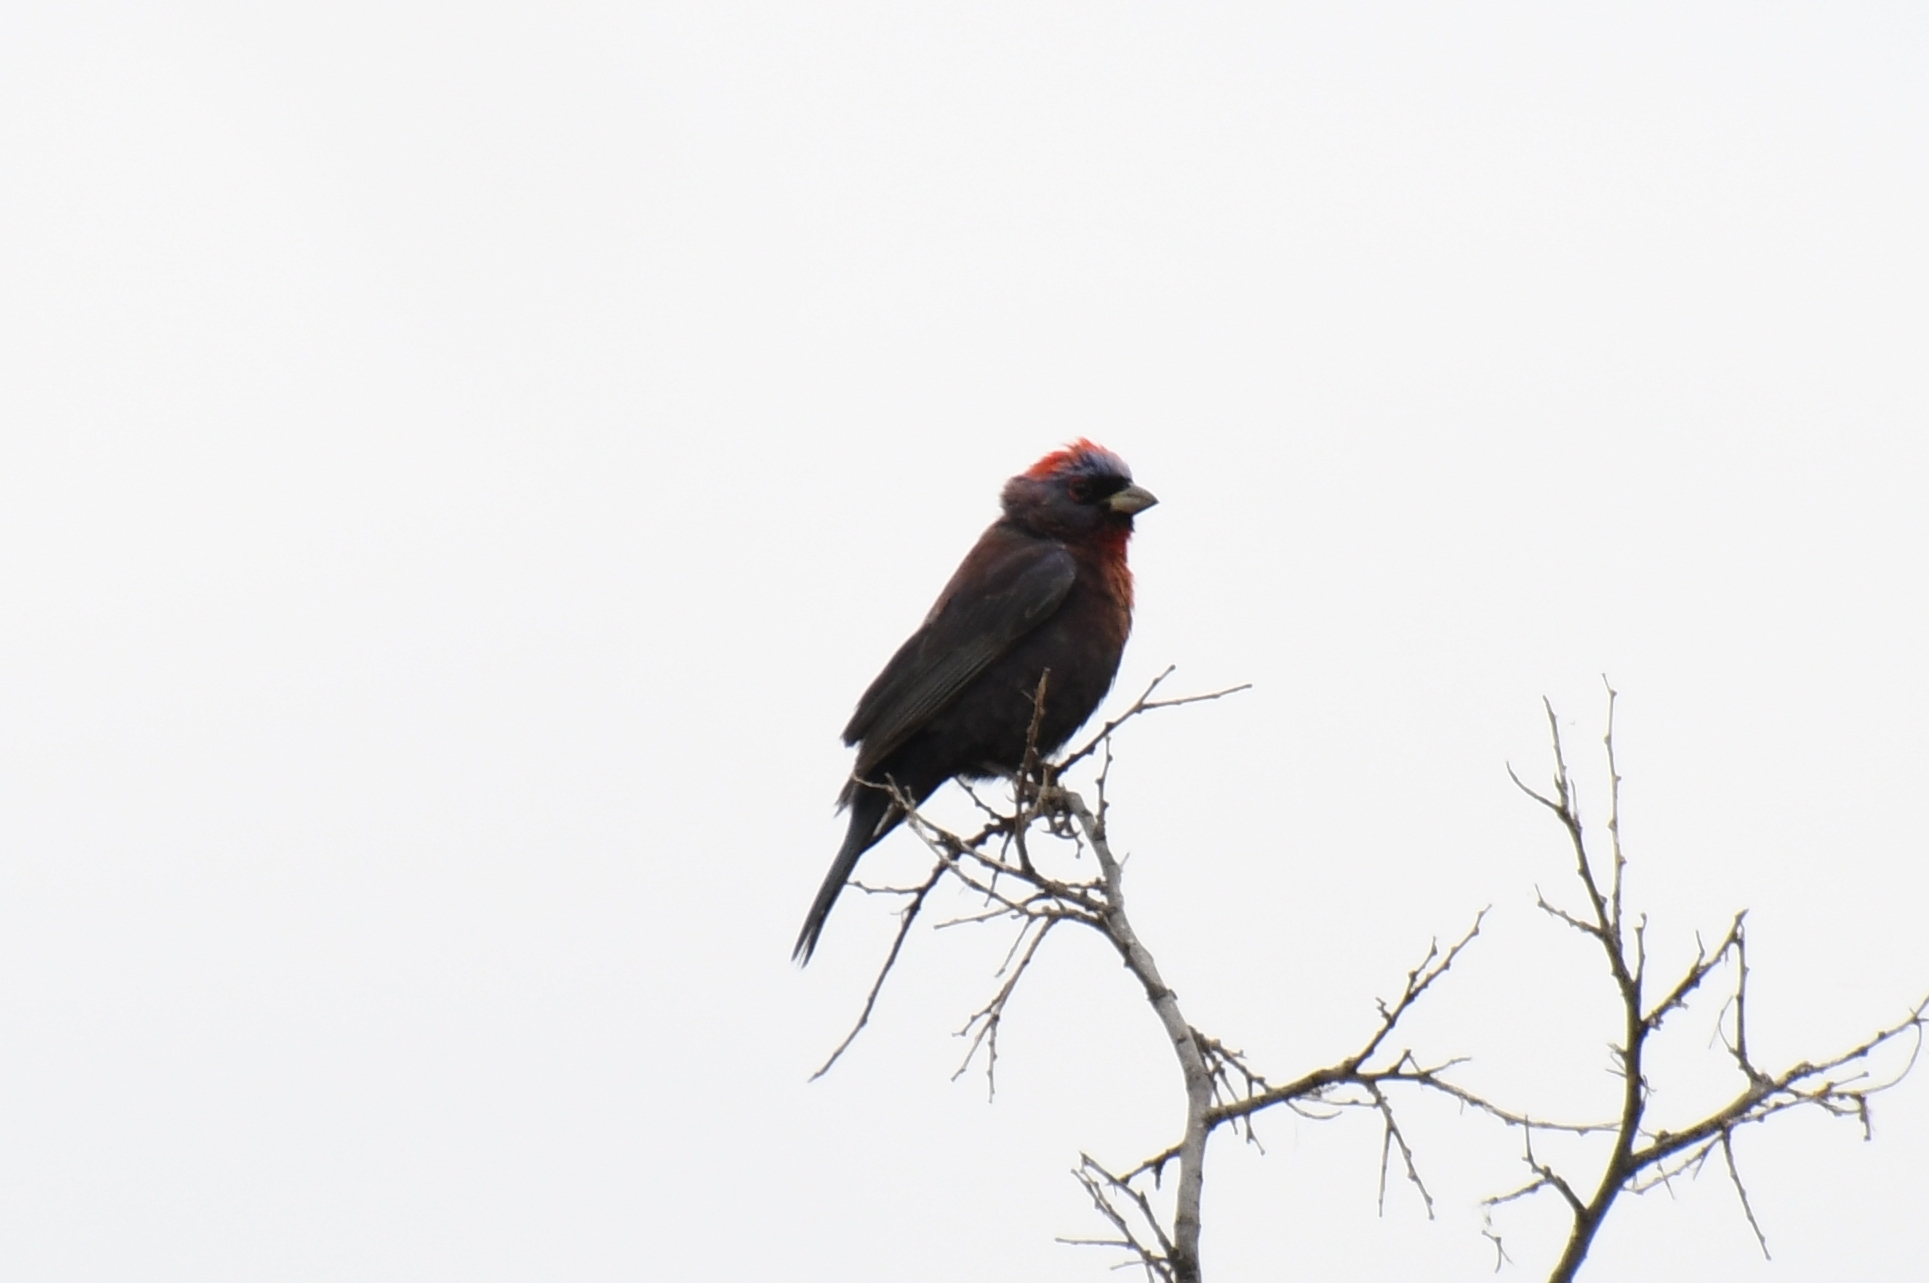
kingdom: Animalia
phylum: Chordata
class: Aves
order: Passeriformes
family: Cardinalidae
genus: Passerina
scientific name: Passerina versicolor
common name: Varied bunting
